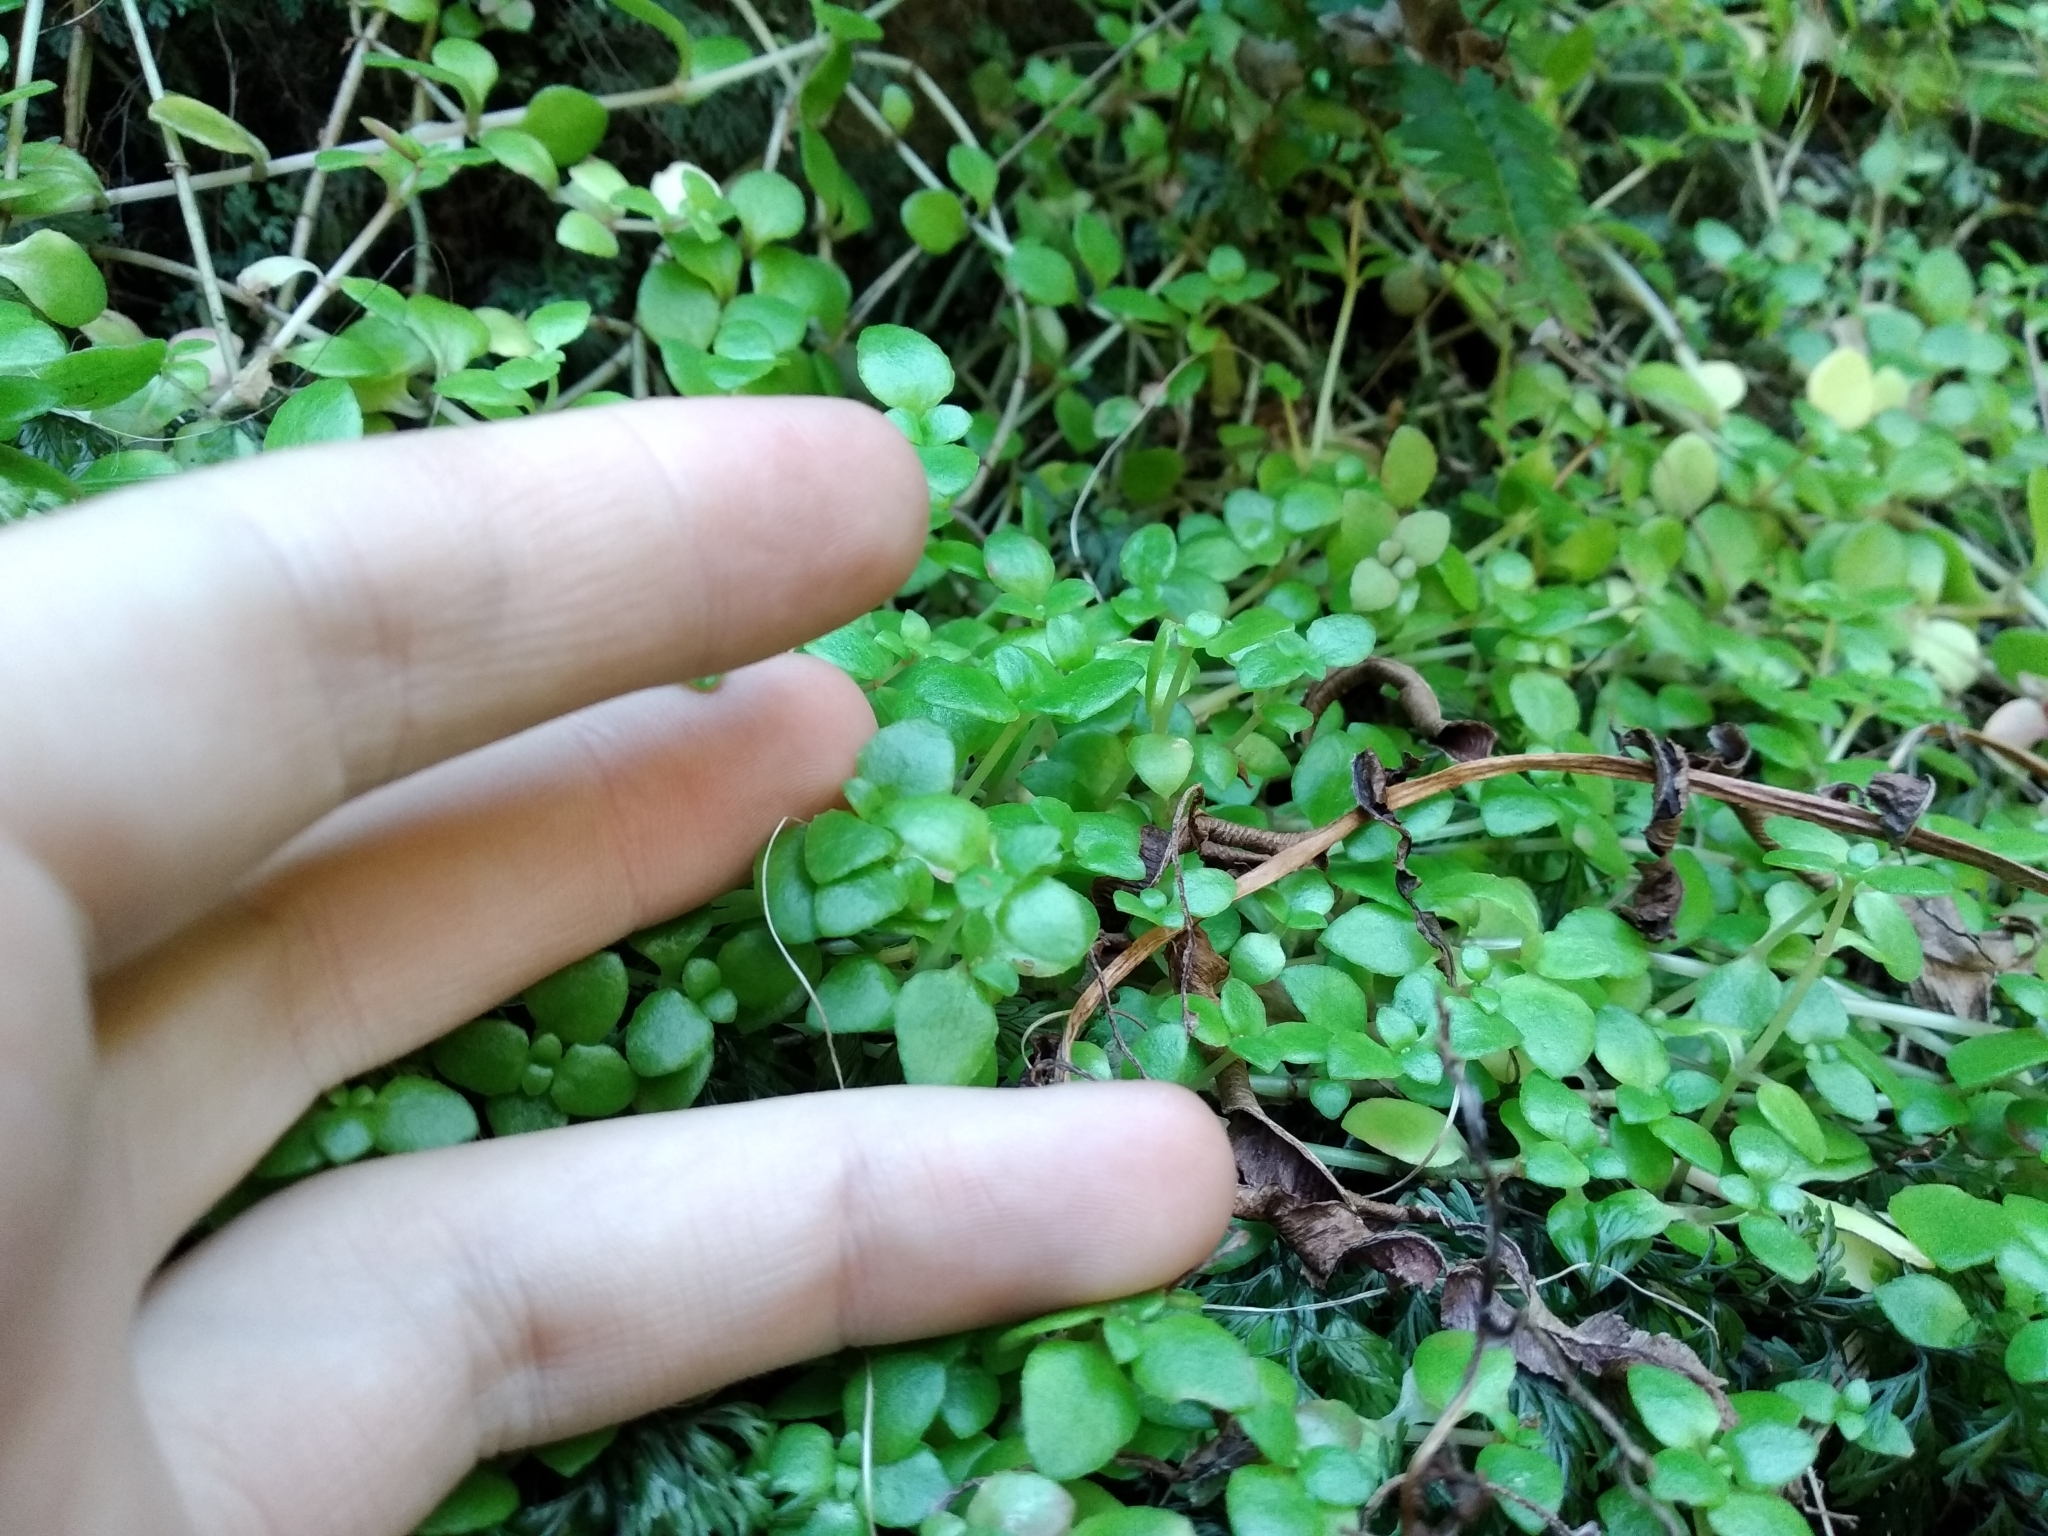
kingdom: Plantae
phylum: Tracheophyta
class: Magnoliopsida
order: Saxifragales
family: Crassulaceae
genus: Crassula
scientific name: Crassula pellucida
